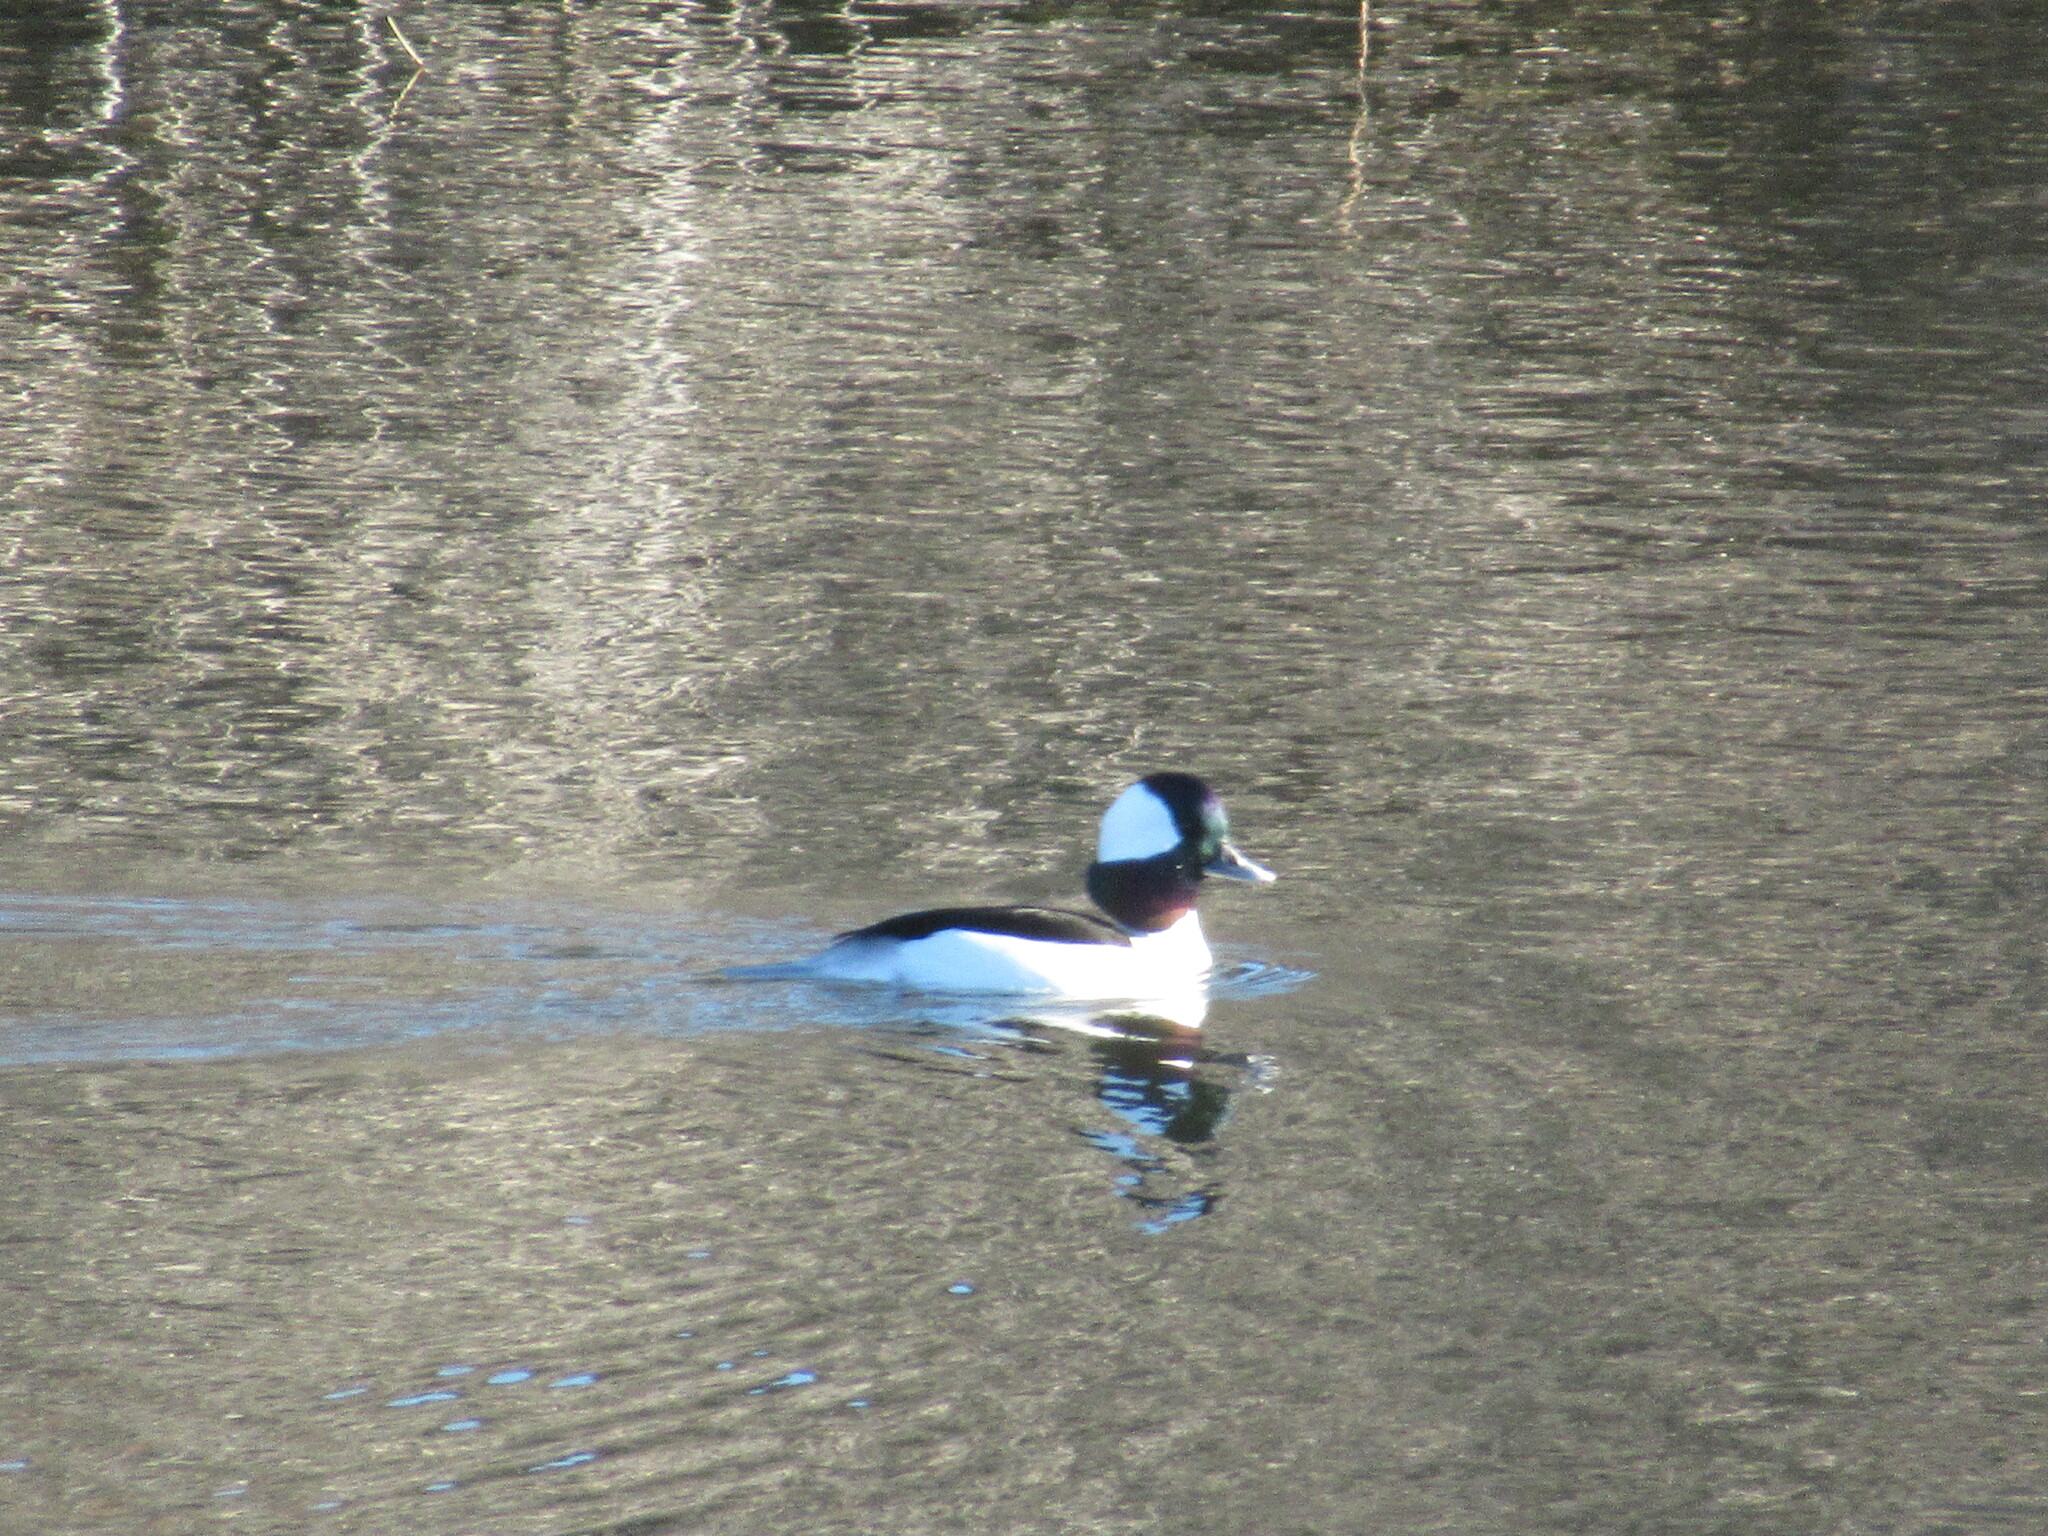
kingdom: Animalia
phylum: Chordata
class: Aves
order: Anseriformes
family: Anatidae
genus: Bucephala
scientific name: Bucephala albeola
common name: Bufflehead
